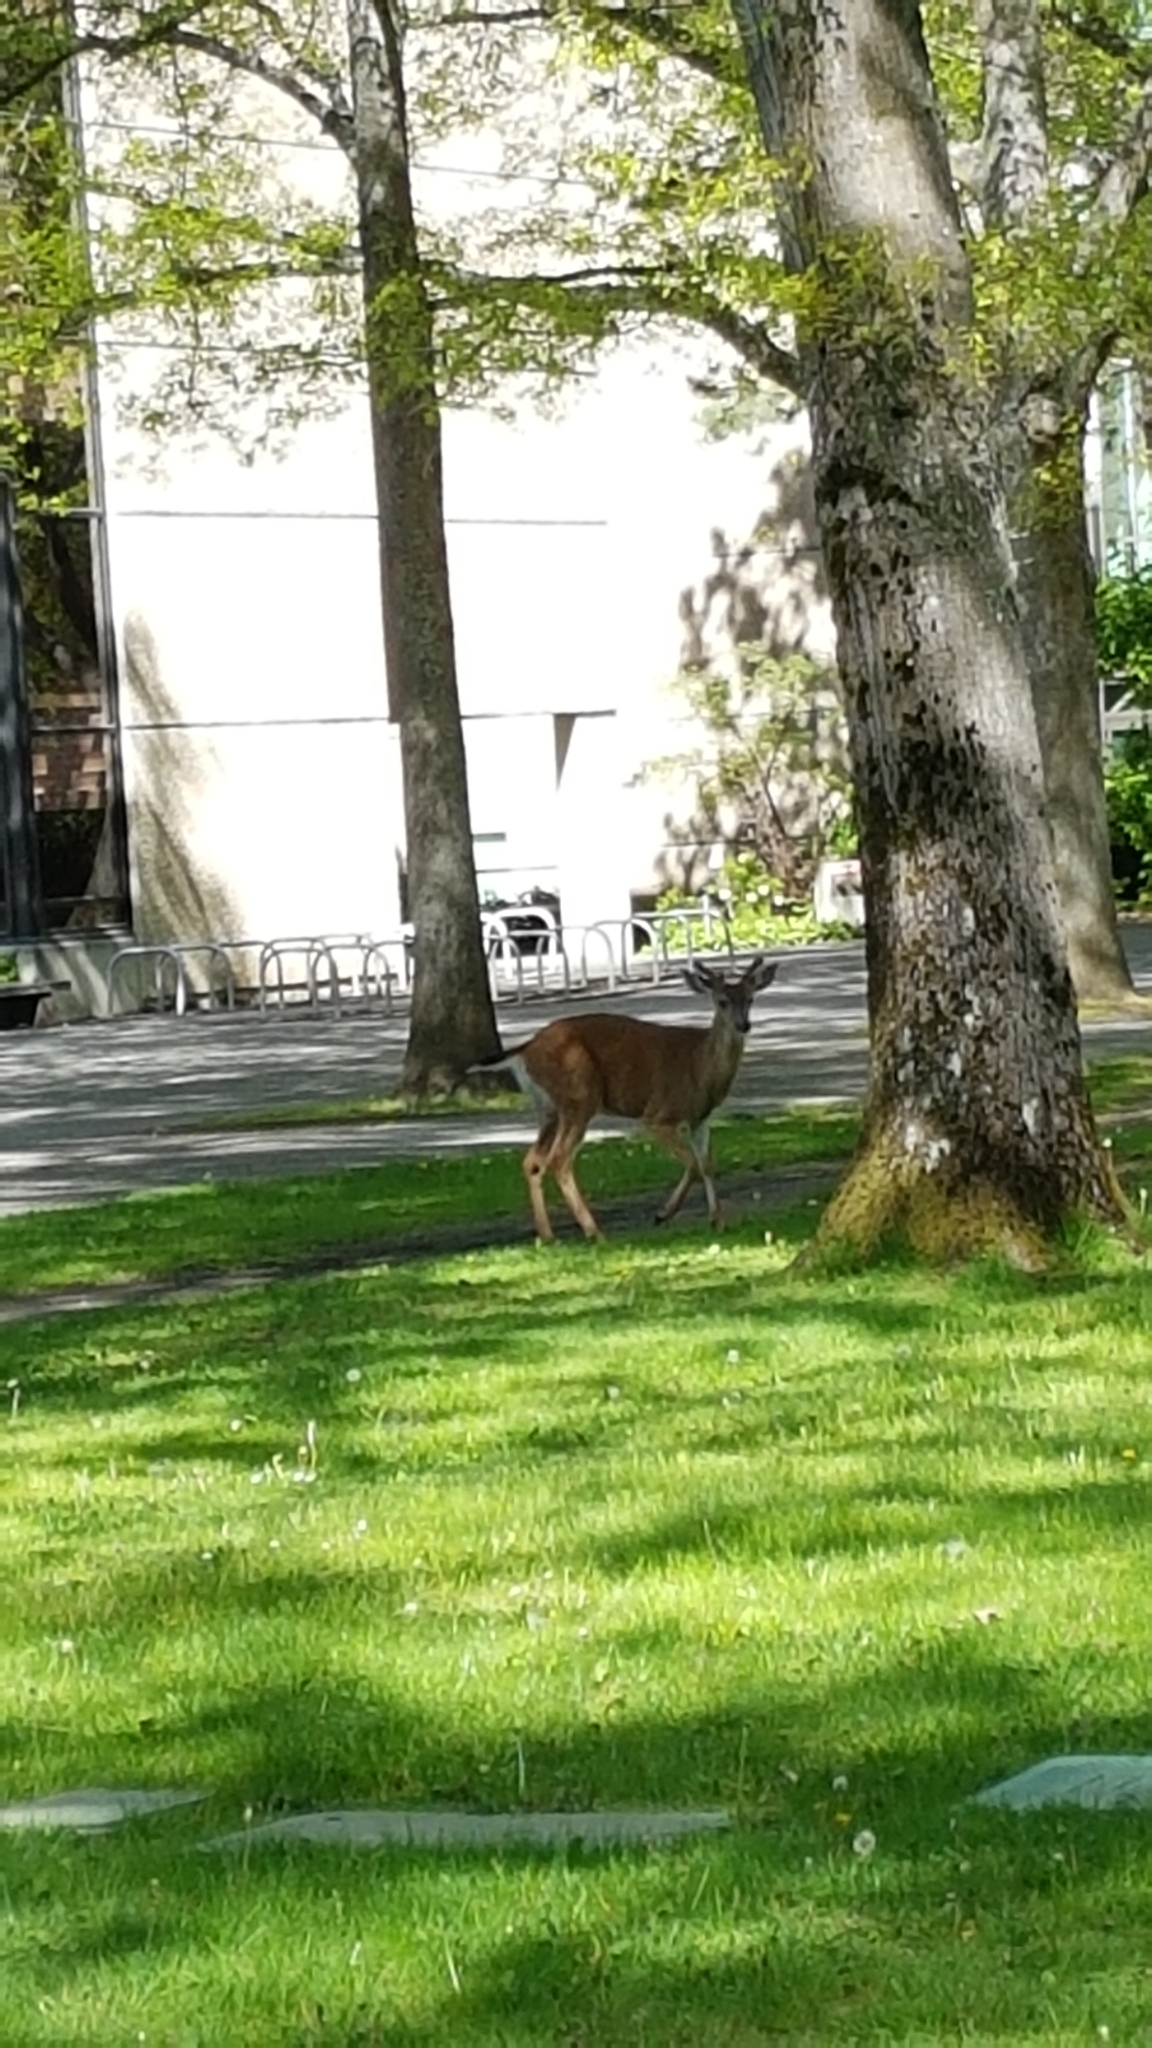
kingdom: Animalia
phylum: Chordata
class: Mammalia
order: Artiodactyla
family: Cervidae
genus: Odocoileus
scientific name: Odocoileus hemionus
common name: Mule deer
